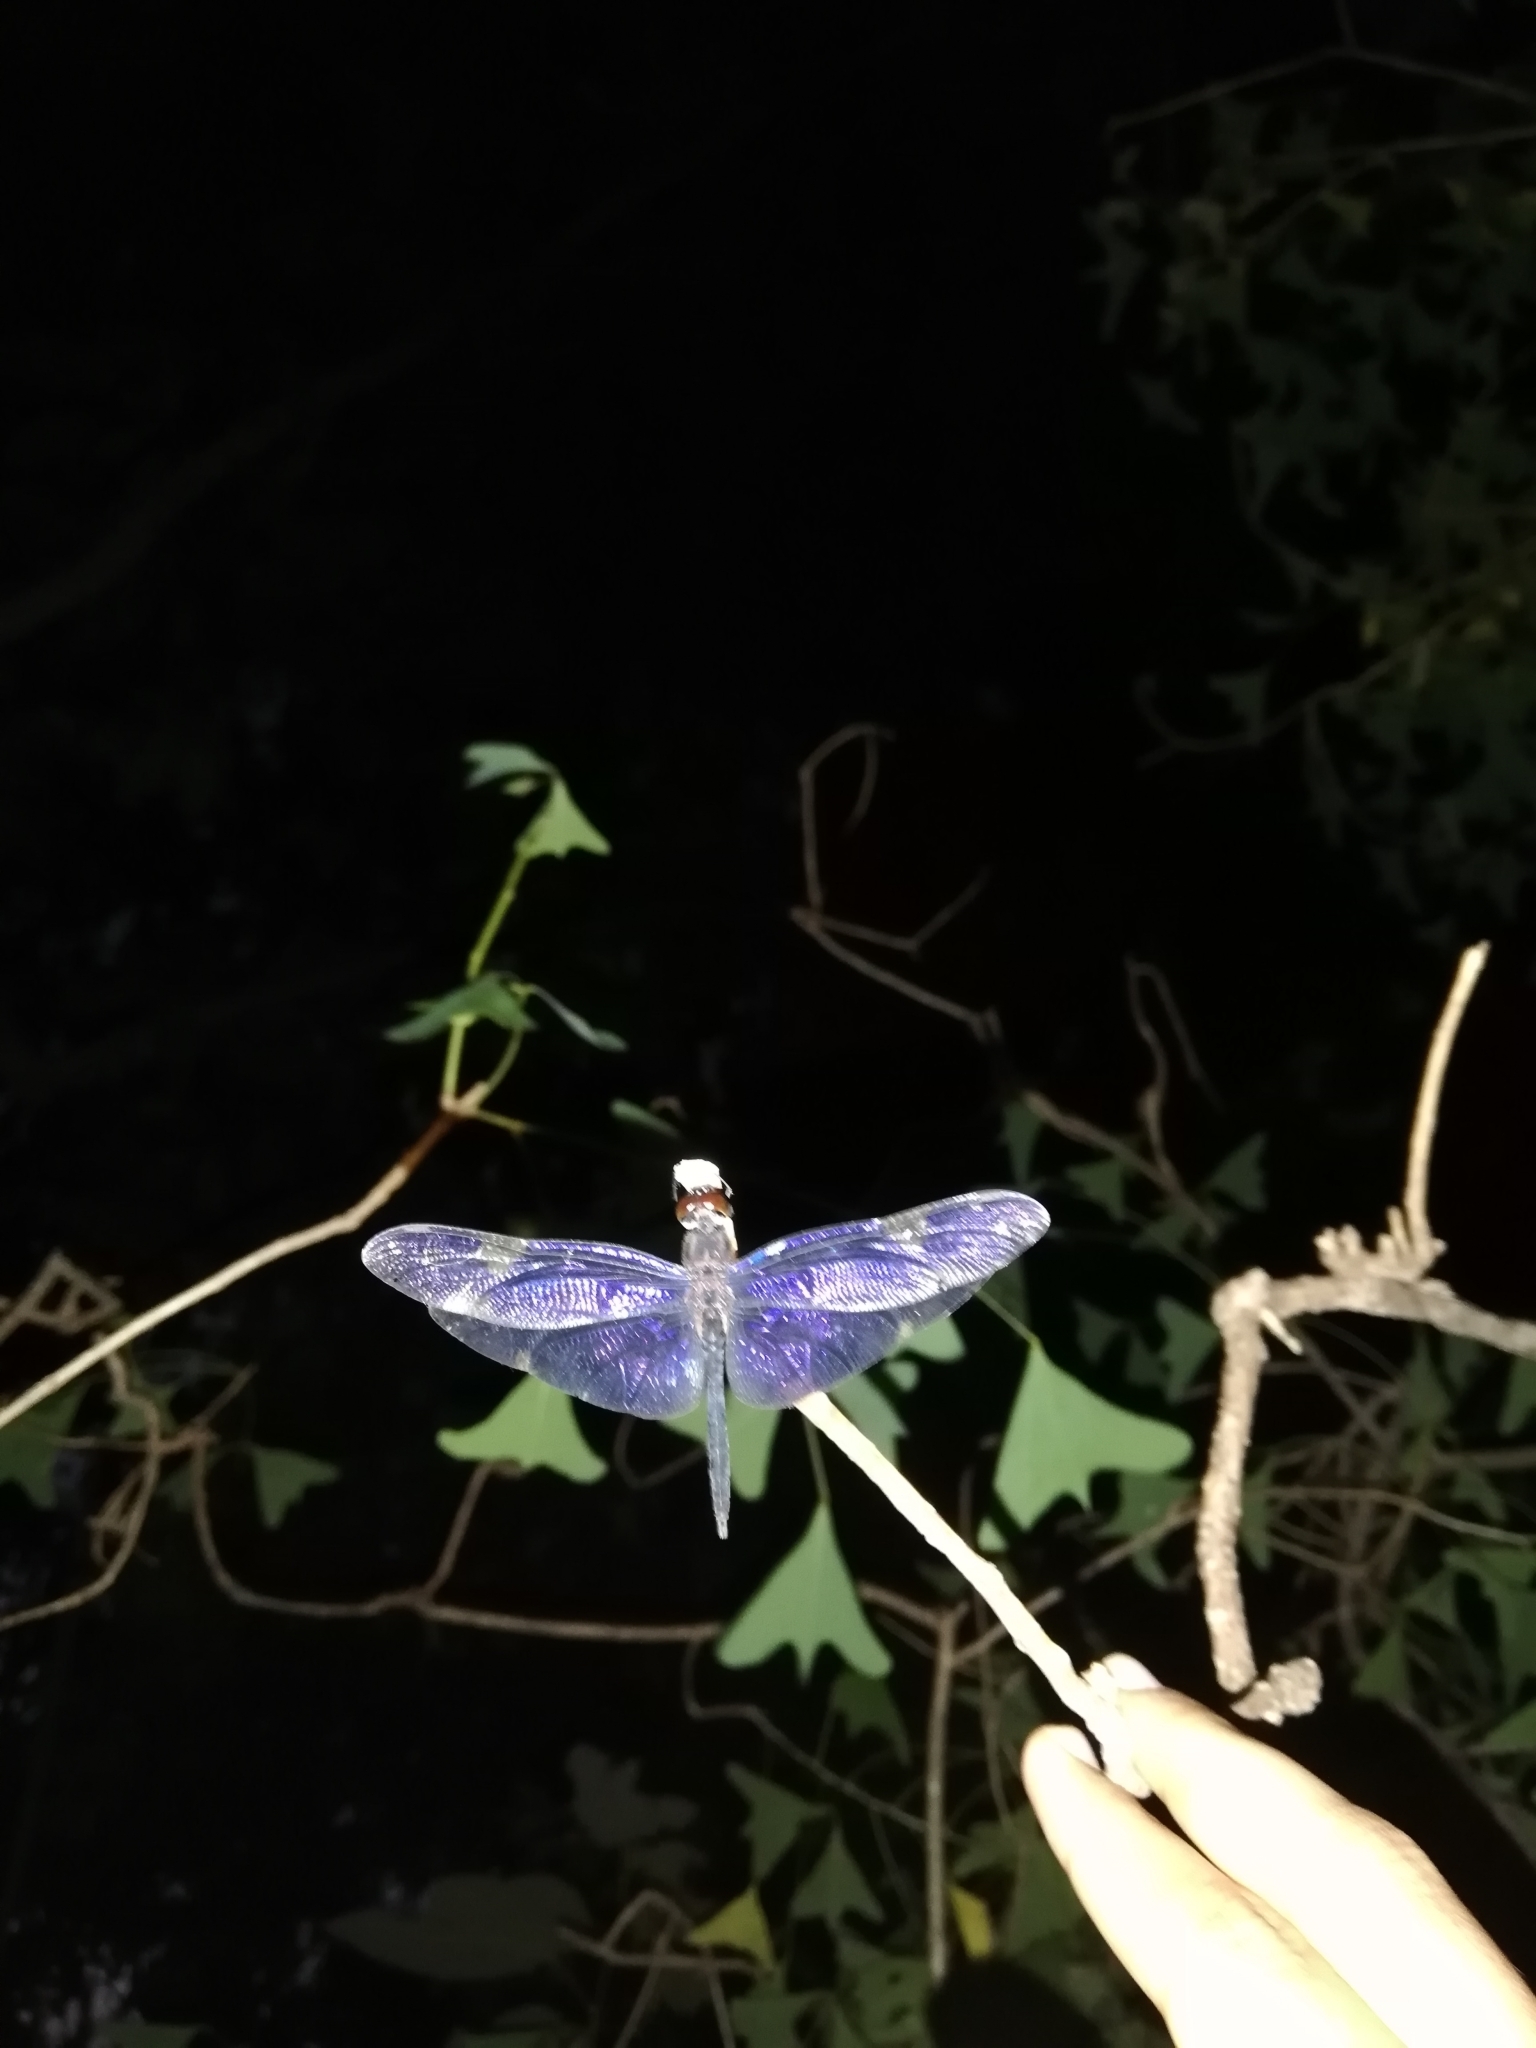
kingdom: Animalia
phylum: Arthropoda
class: Insecta
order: Odonata
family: Libellulidae
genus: Rhyothemis
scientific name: Rhyothemis princeps
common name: Sapphire flutterer
